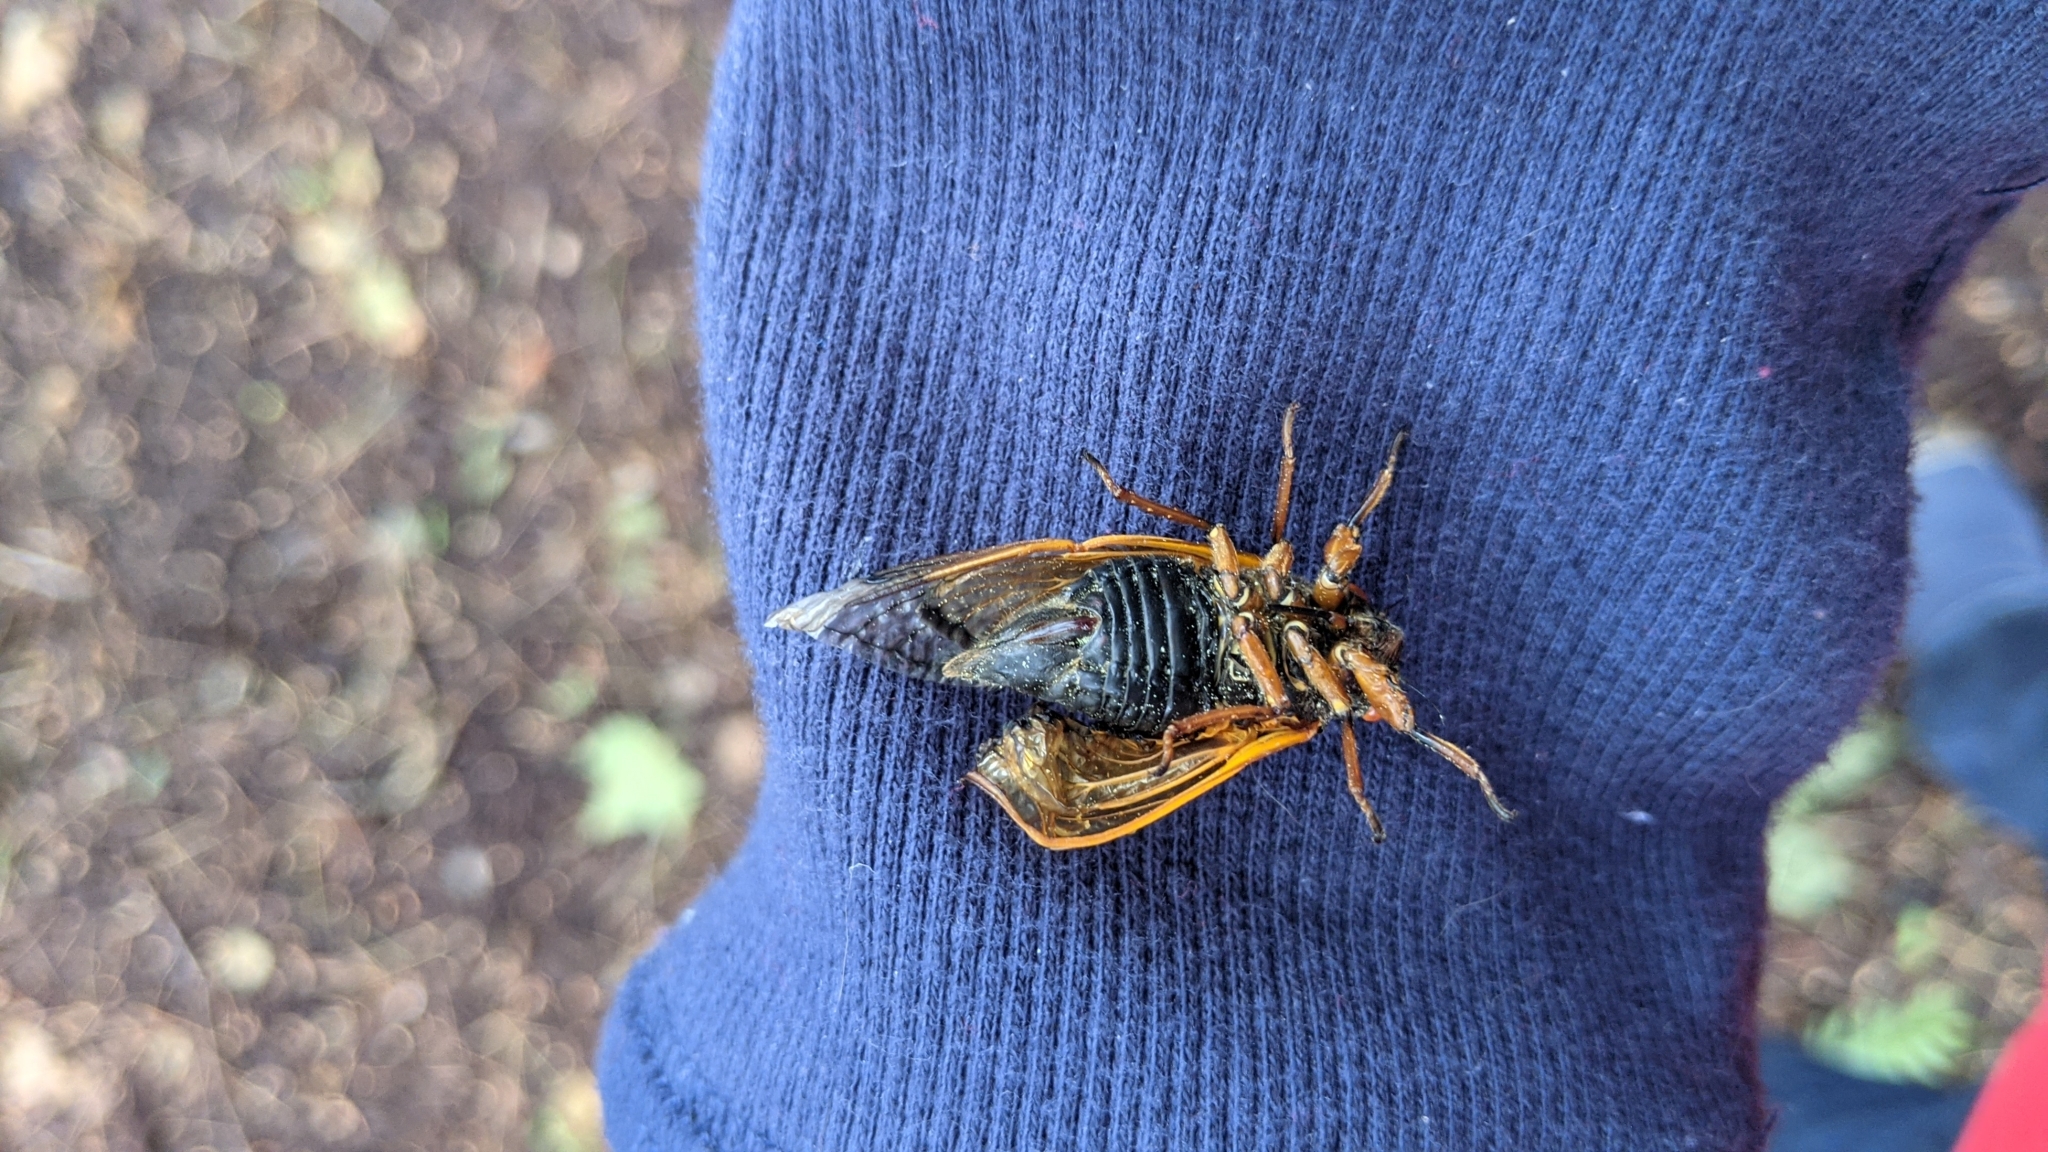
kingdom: Animalia
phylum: Arthropoda
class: Insecta
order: Hemiptera
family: Cicadidae
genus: Magicicada
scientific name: Magicicada cassini
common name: Cassin's 17-year cicada
